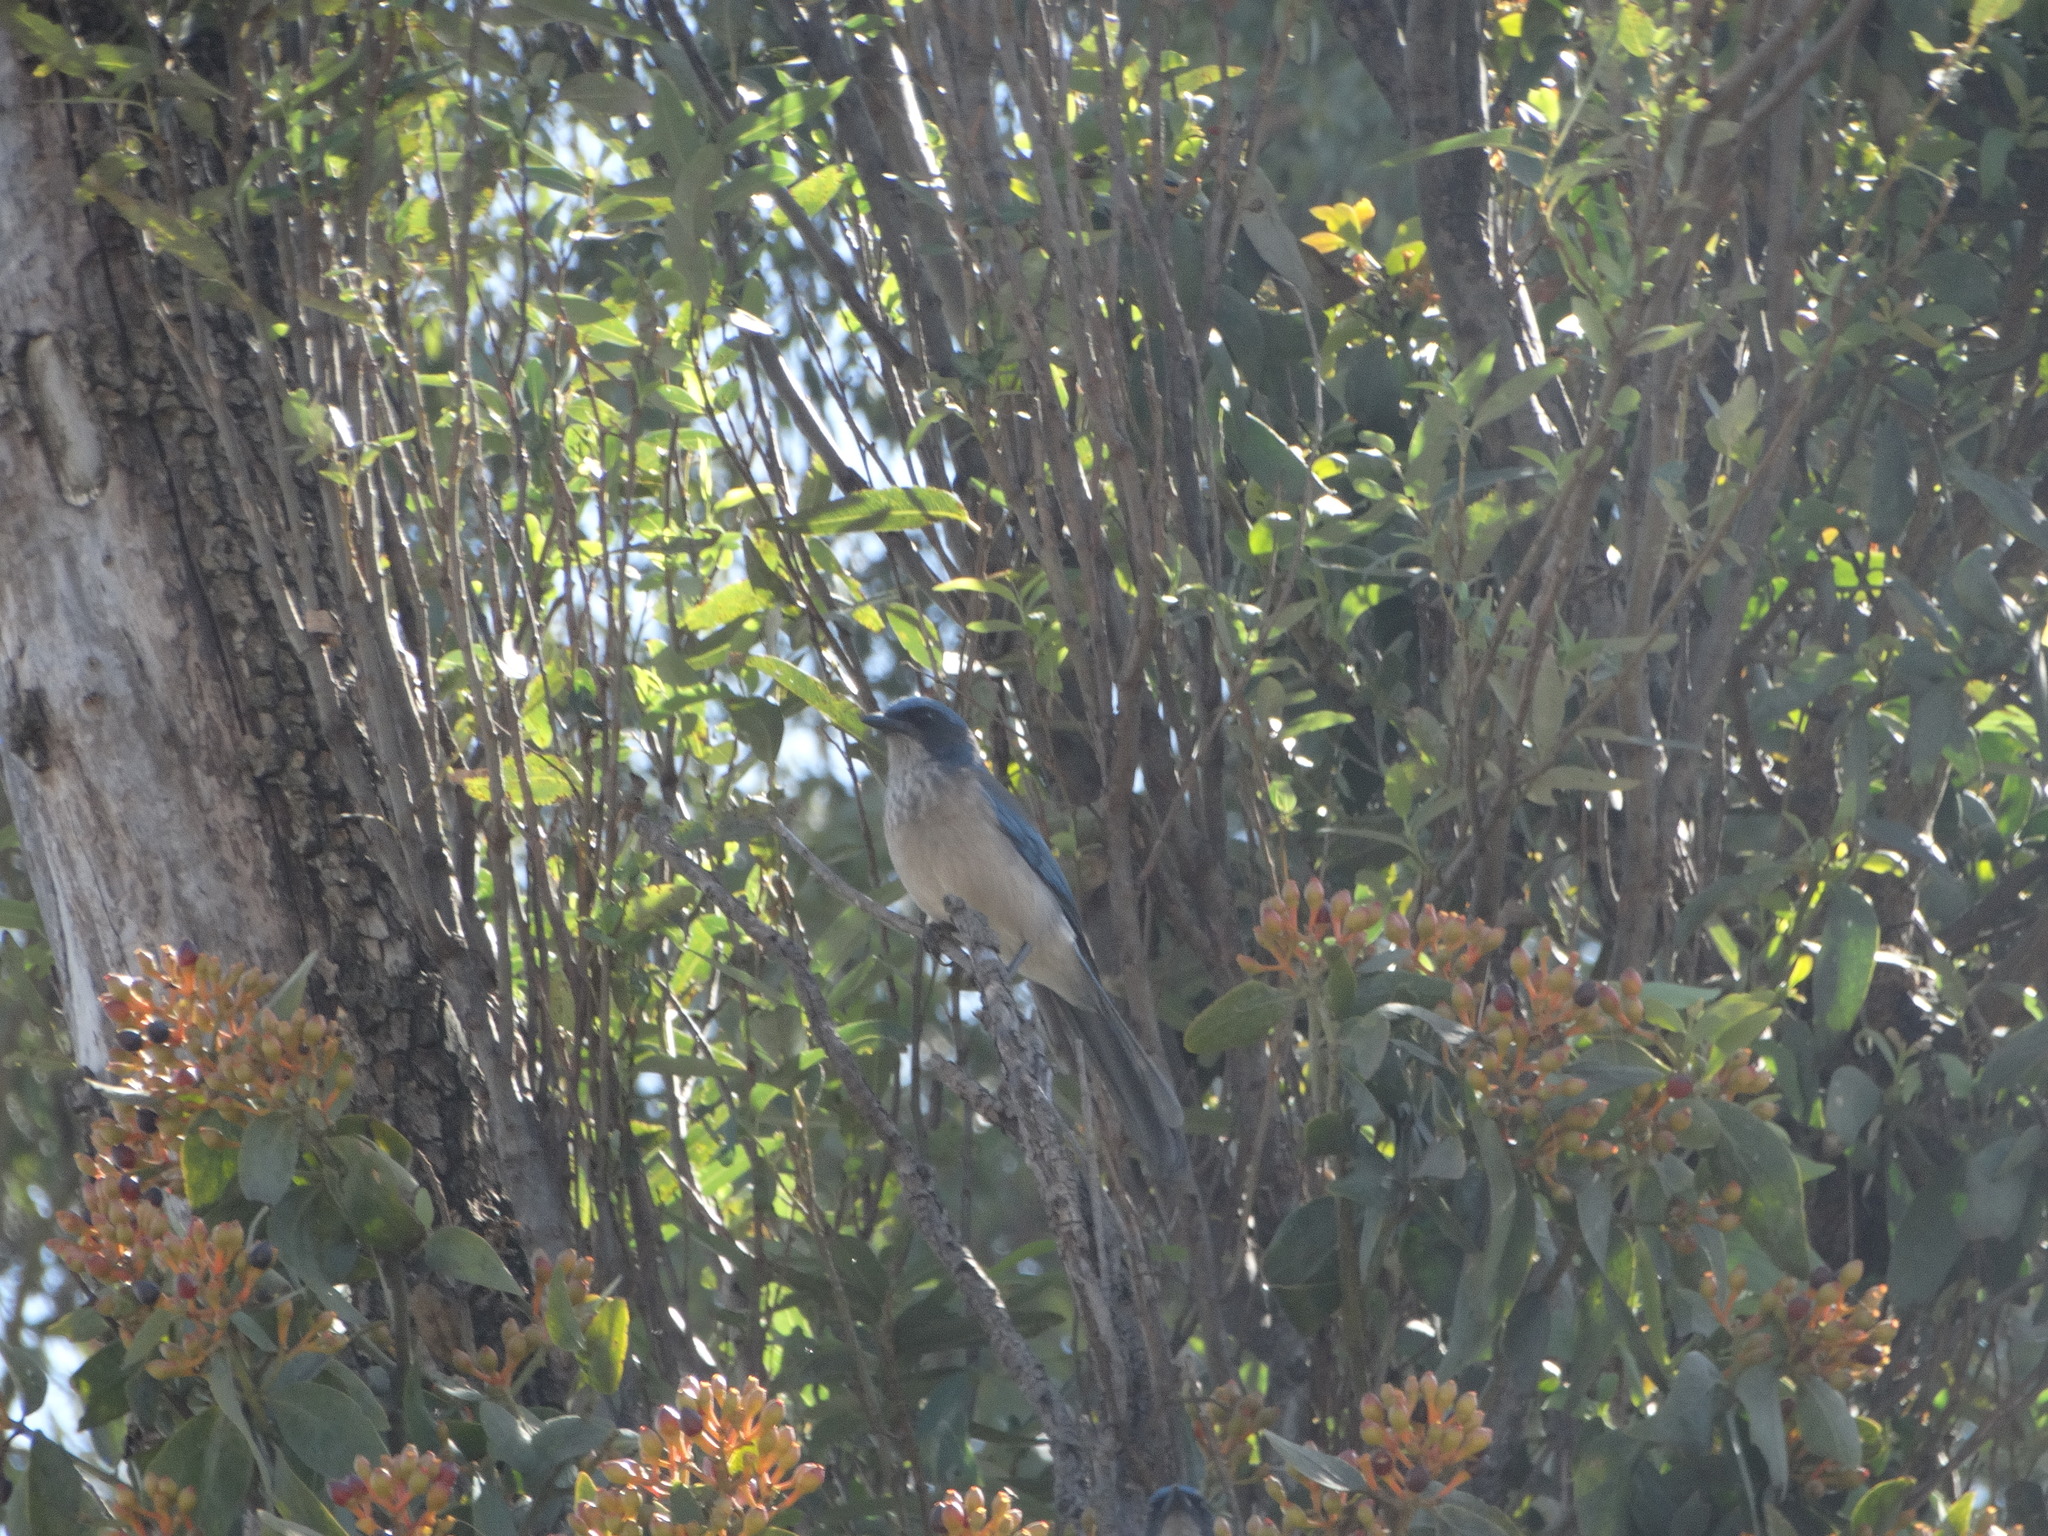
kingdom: Animalia
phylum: Chordata
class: Aves
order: Passeriformes
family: Corvidae
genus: Aphelocoma
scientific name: Aphelocoma woodhouseii
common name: Woodhouse's scrub-jay
